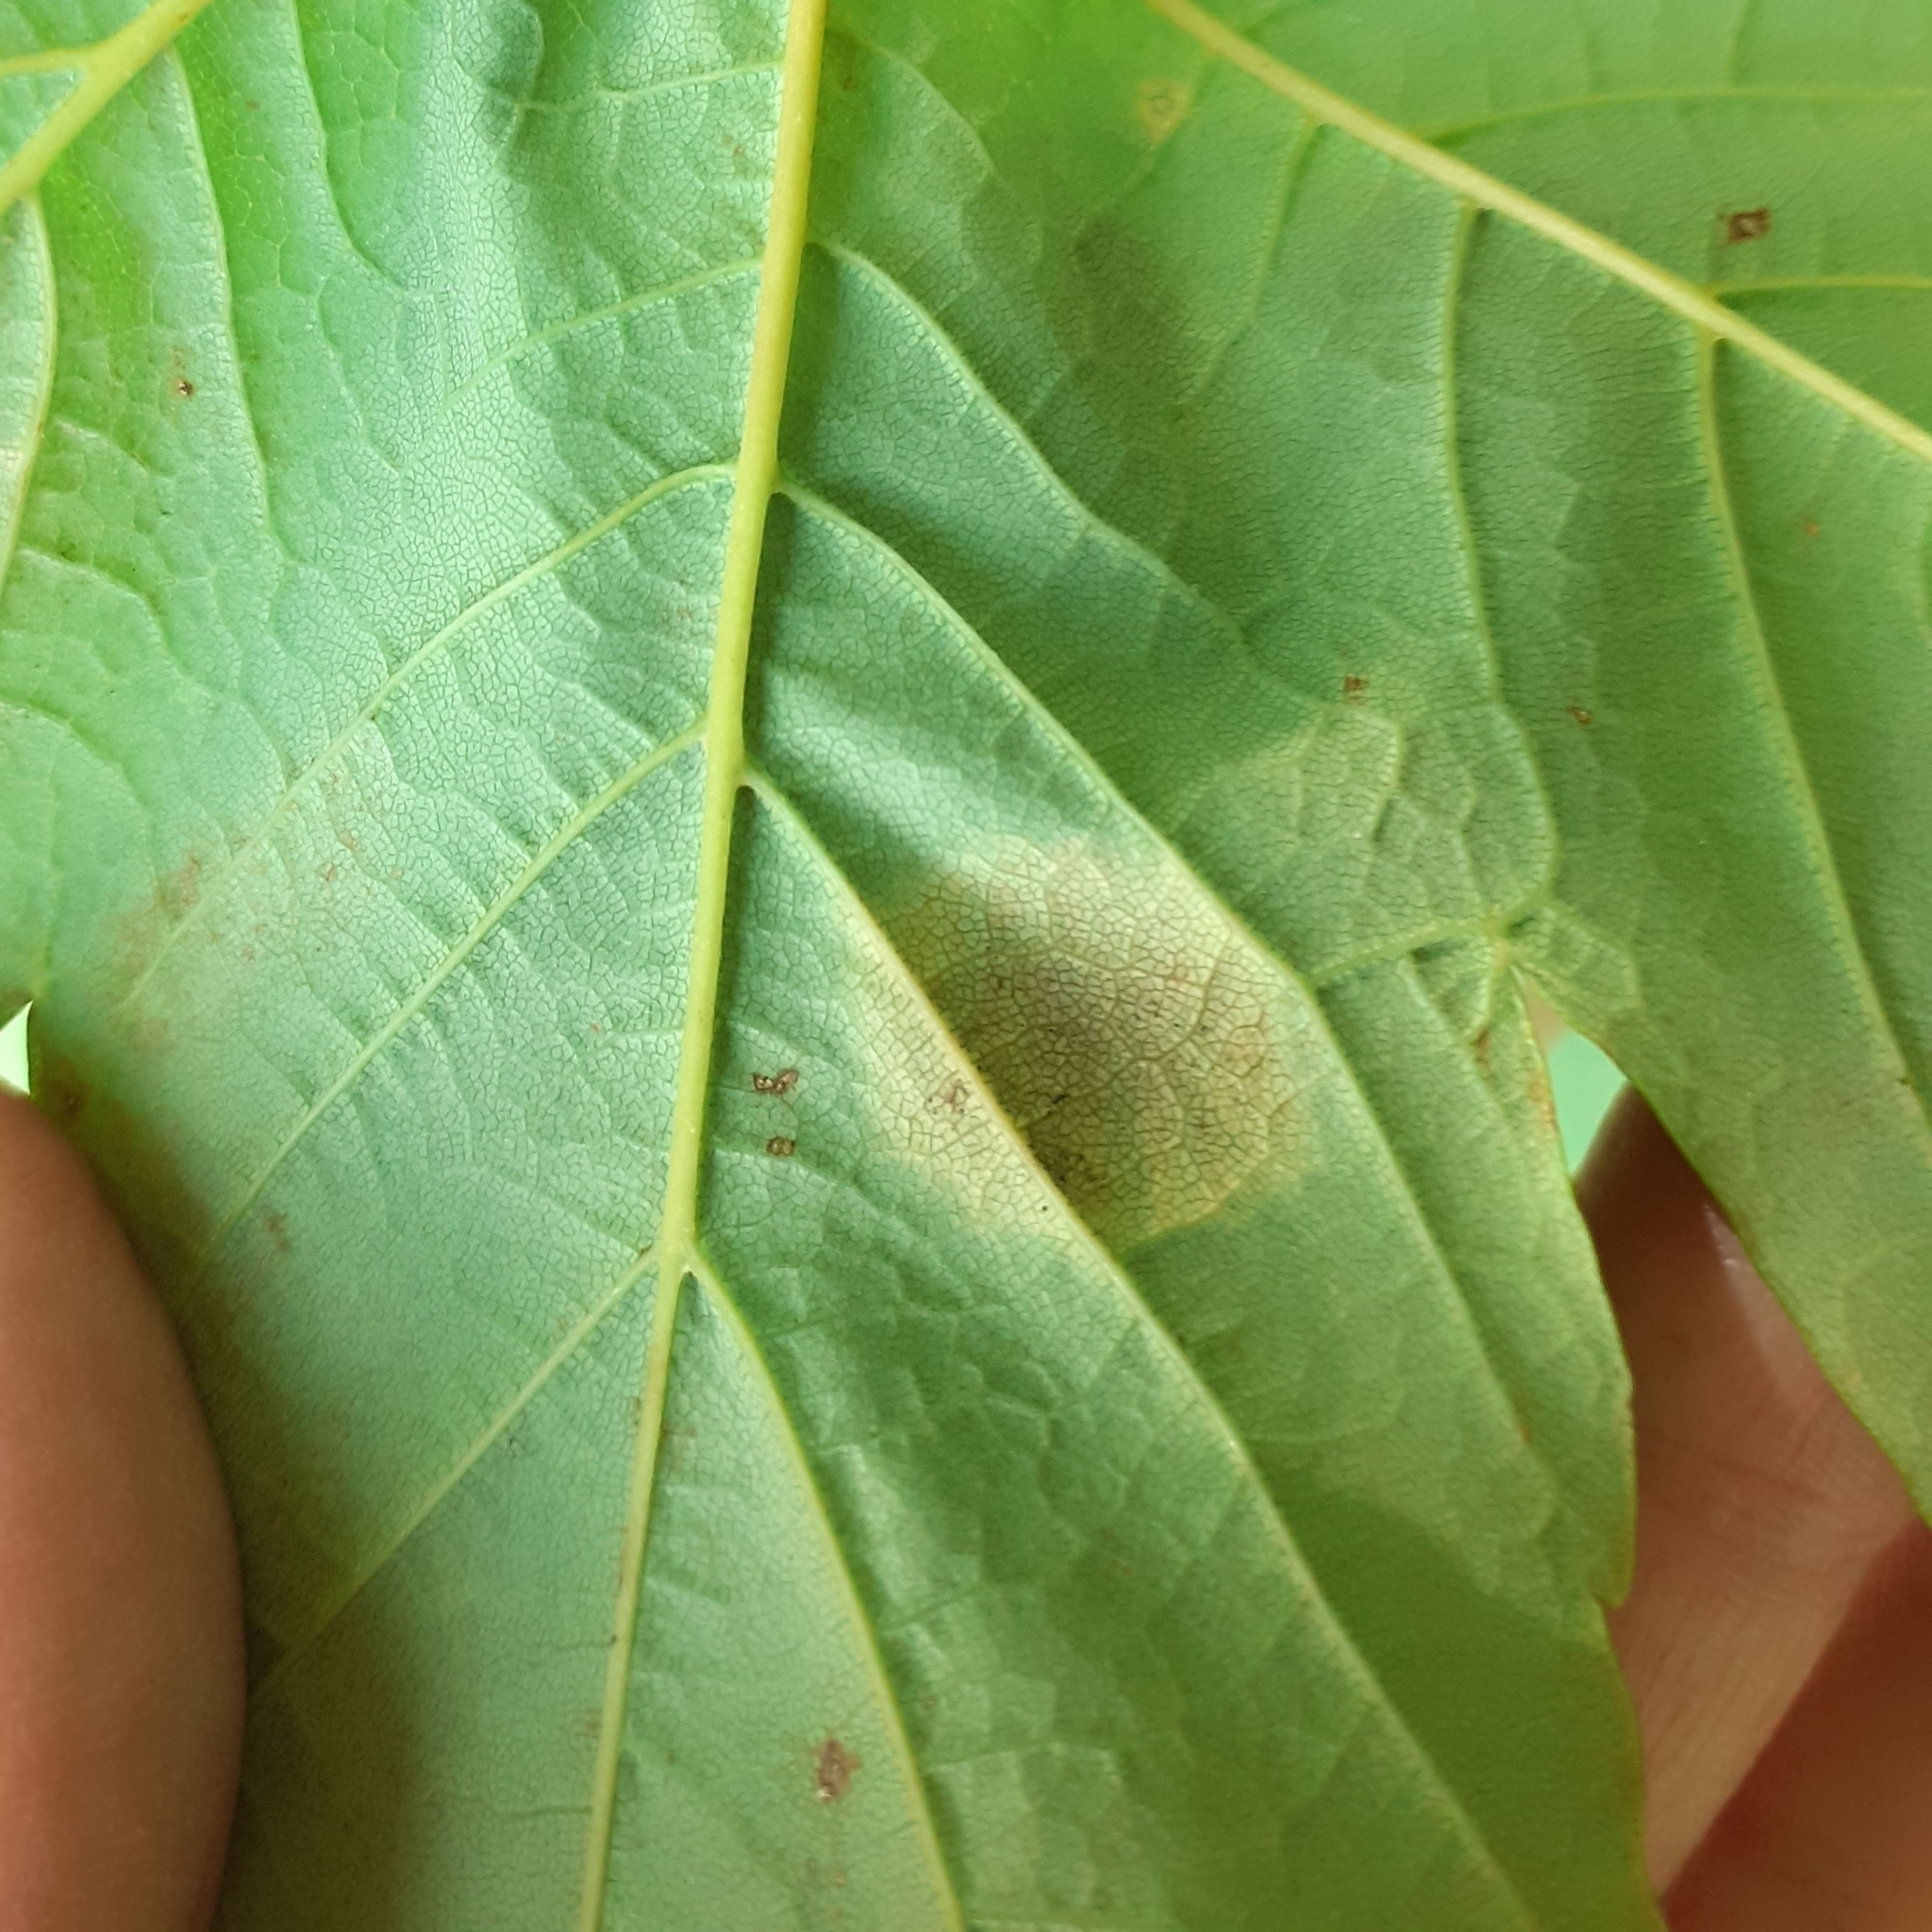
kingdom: Fungi
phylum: Ascomycota
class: Leotiomycetes
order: Rhytismatales
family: Rhytismataceae
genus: Rhytisma
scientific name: Rhytisma acerinum
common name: European tar spot
